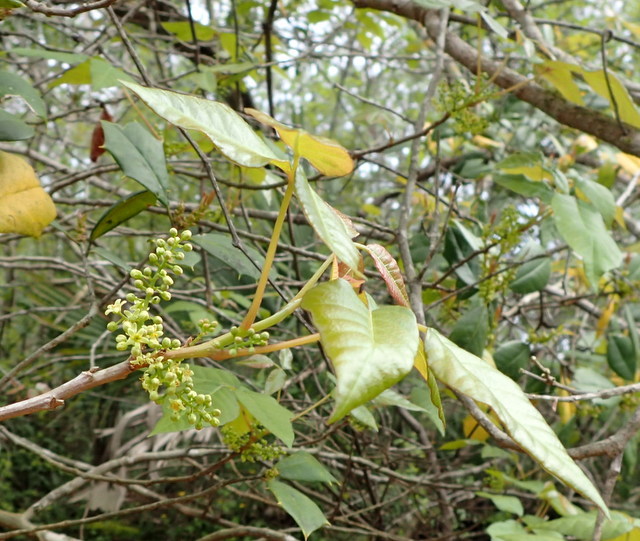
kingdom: Plantae
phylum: Tracheophyta
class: Magnoliopsida
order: Sapindales
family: Anacardiaceae
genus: Toxicodendron
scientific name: Toxicodendron radicans
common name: Poison ivy
